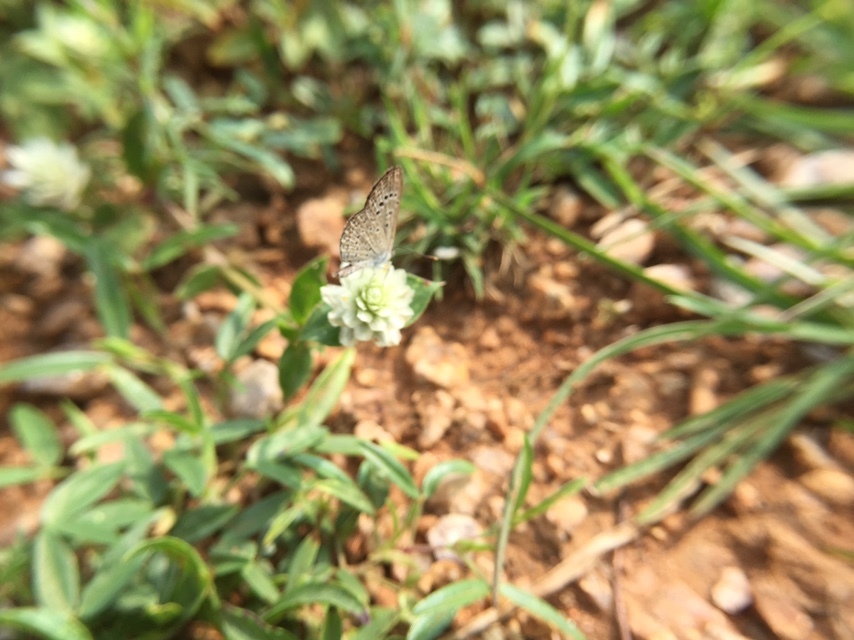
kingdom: Animalia
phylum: Arthropoda
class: Insecta
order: Lepidoptera
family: Lycaenidae
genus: Zizeeria
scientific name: Zizeeria karsandra
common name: Dark grass blue
